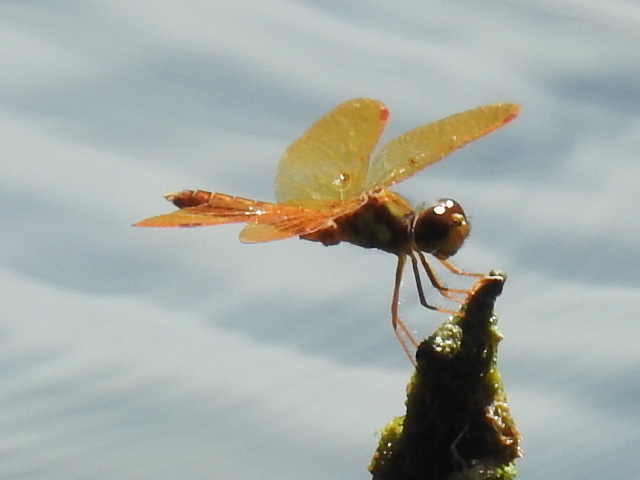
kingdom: Animalia
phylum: Arthropoda
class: Insecta
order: Odonata
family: Libellulidae
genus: Perithemis
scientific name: Perithemis tenera
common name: Eastern amberwing
